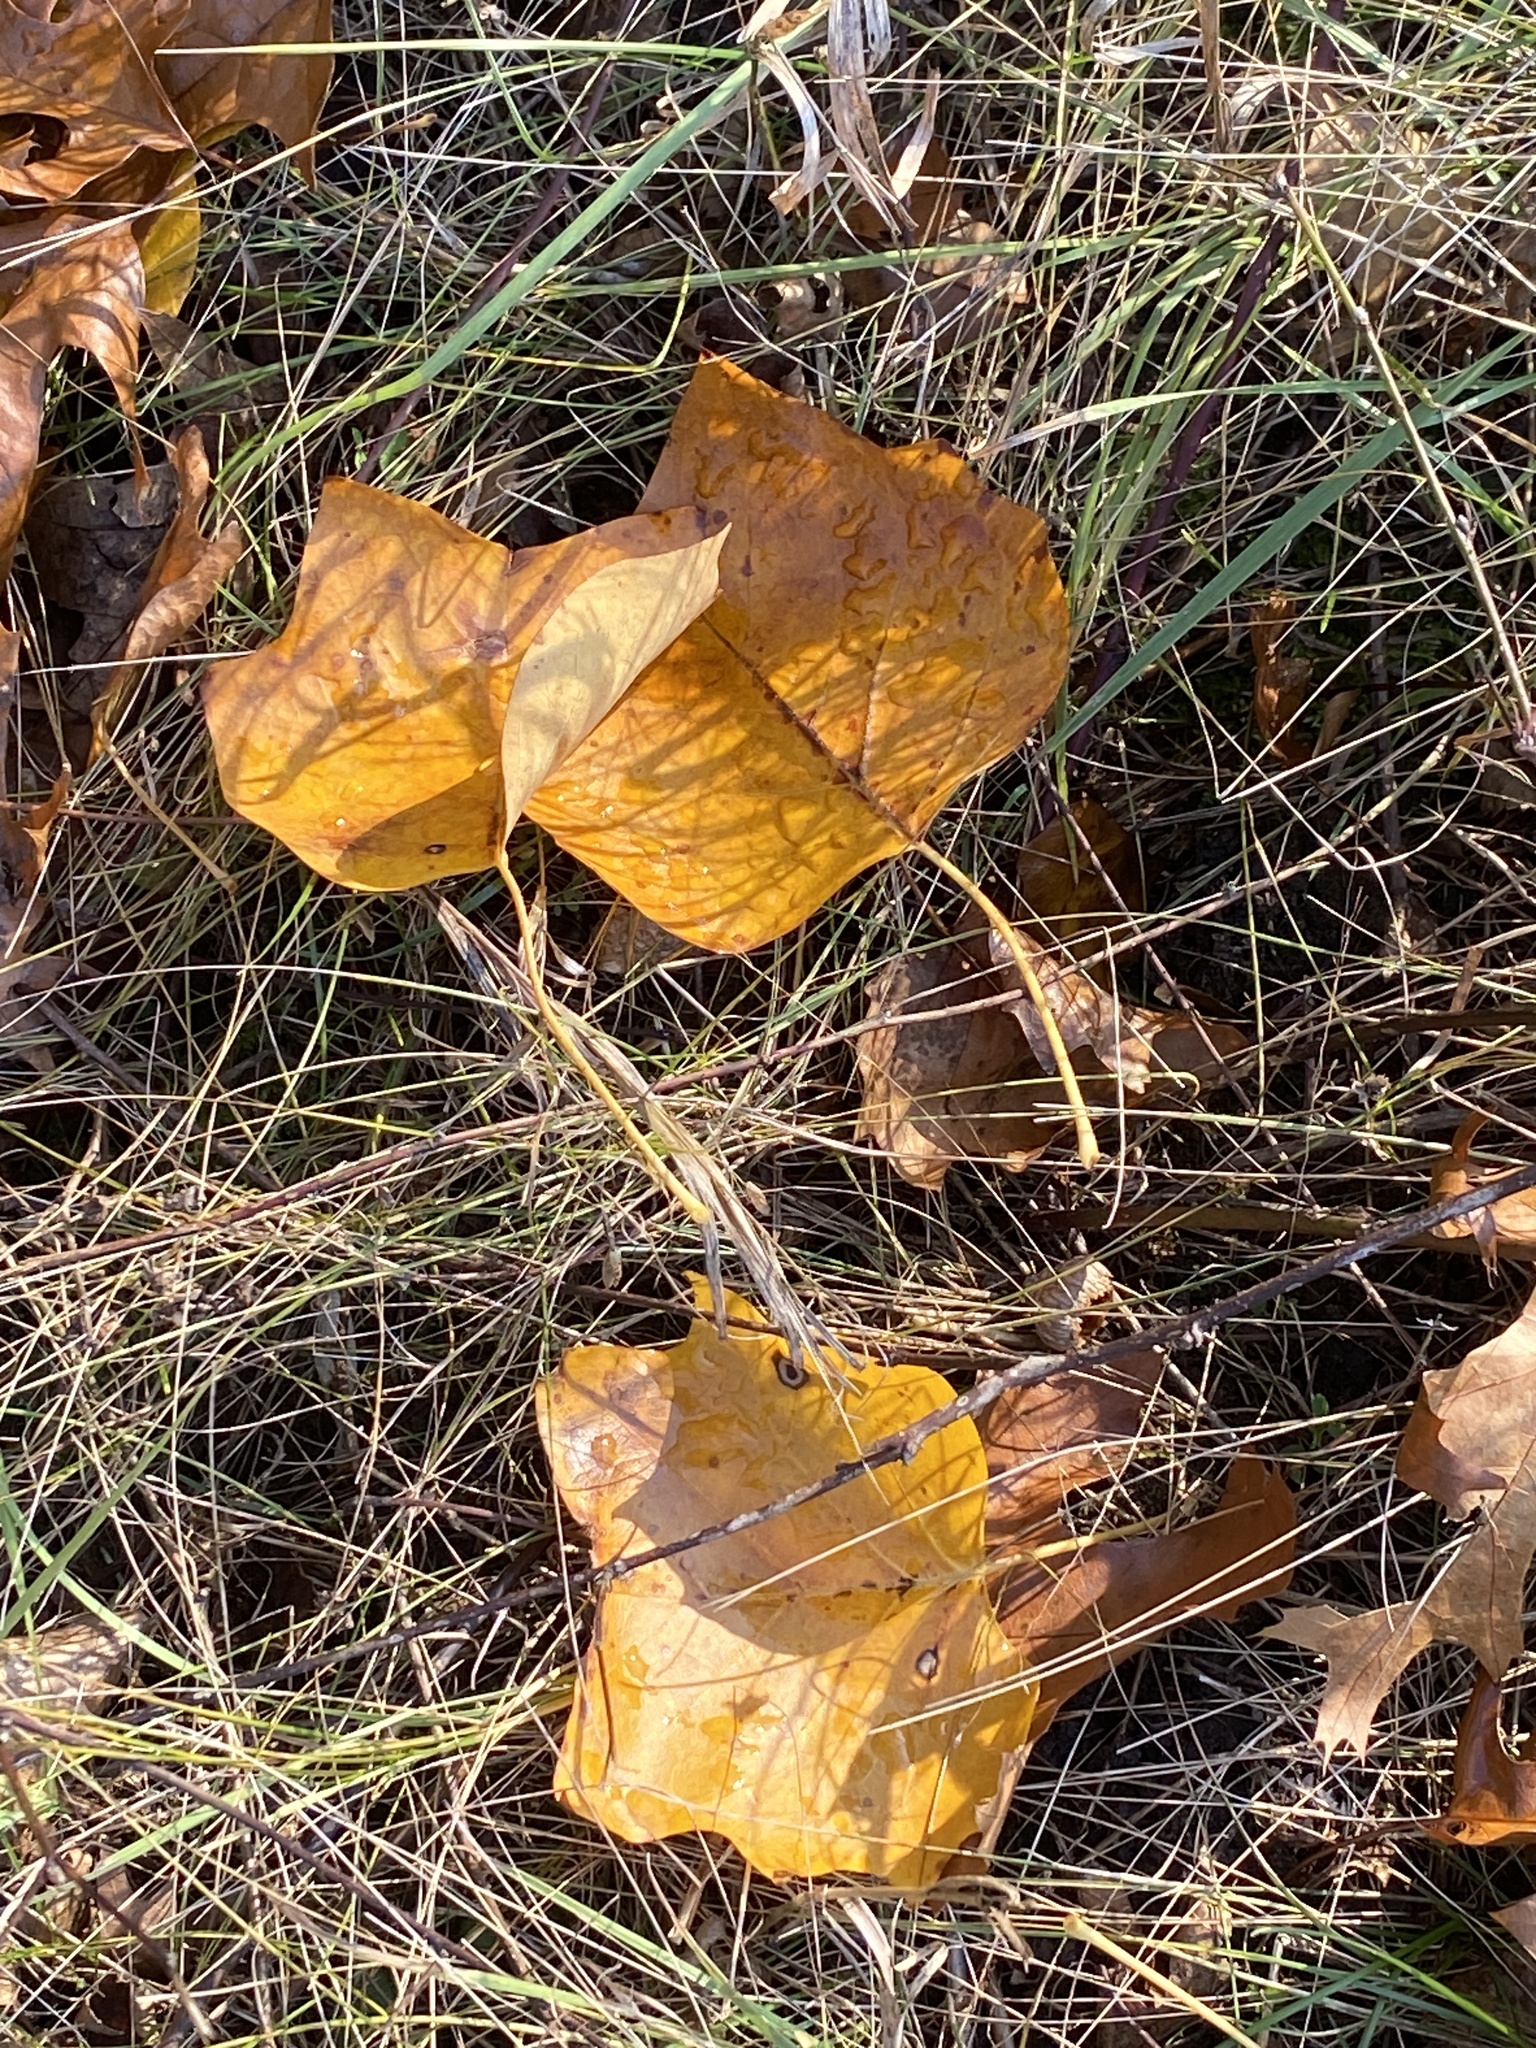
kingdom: Plantae
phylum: Tracheophyta
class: Magnoliopsida
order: Magnoliales
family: Magnoliaceae
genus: Liriodendron
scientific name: Liriodendron tulipifera
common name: Tulip tree
